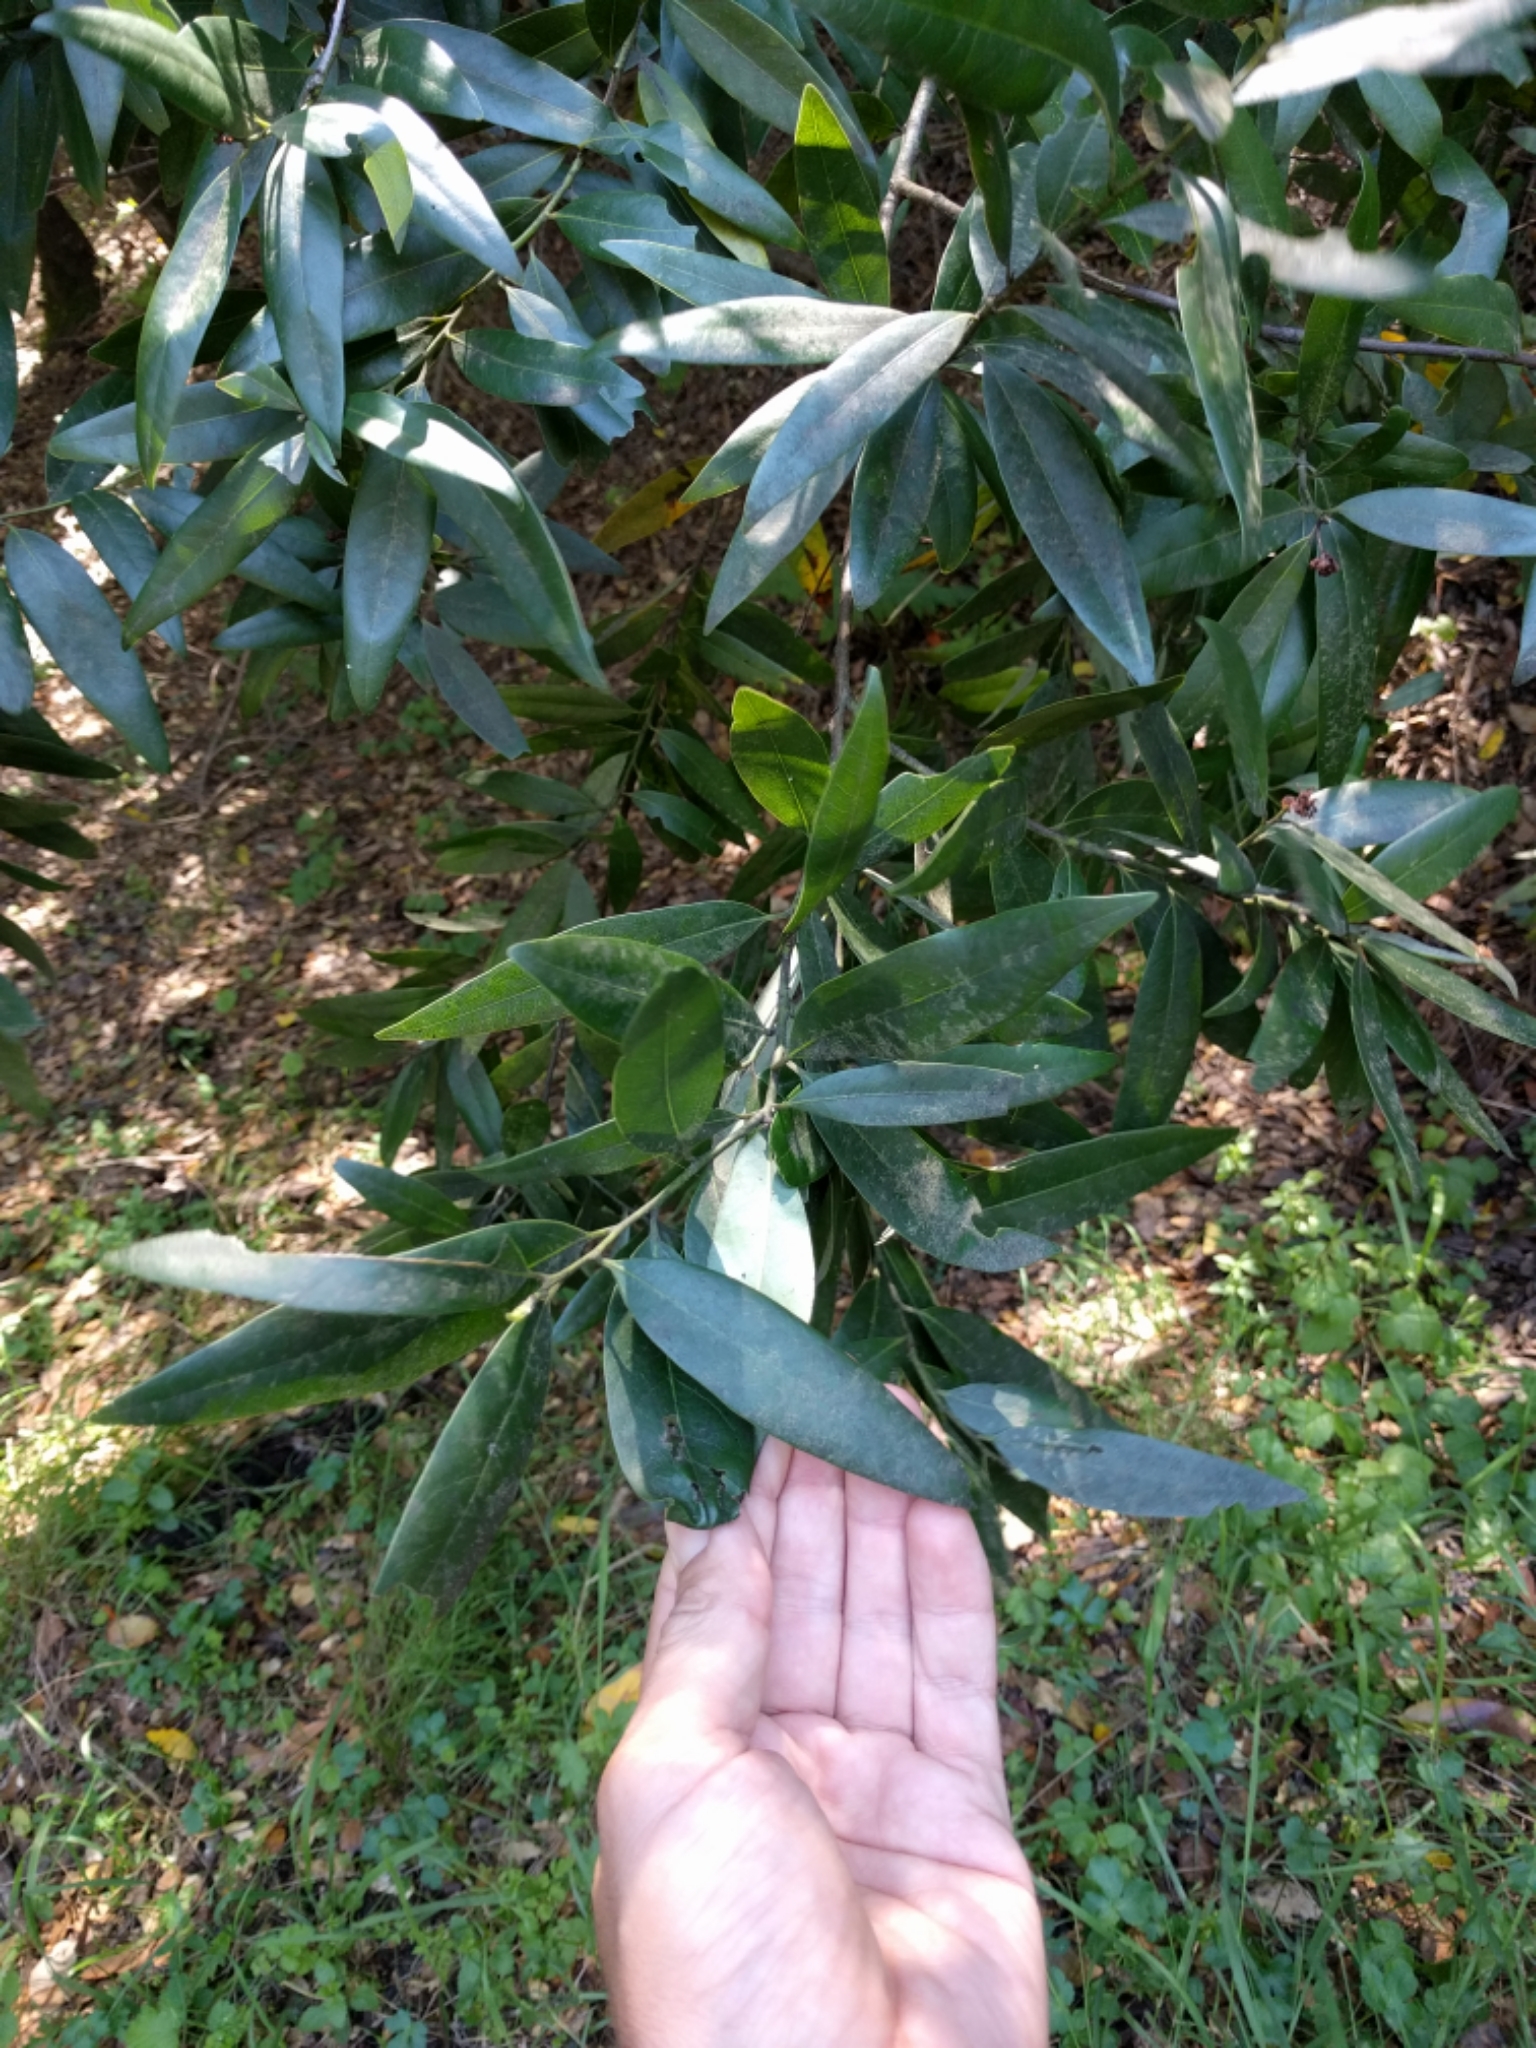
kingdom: Plantae
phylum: Tracheophyta
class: Magnoliopsida
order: Laurales
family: Lauraceae
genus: Umbellularia
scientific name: Umbellularia californica
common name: California bay
